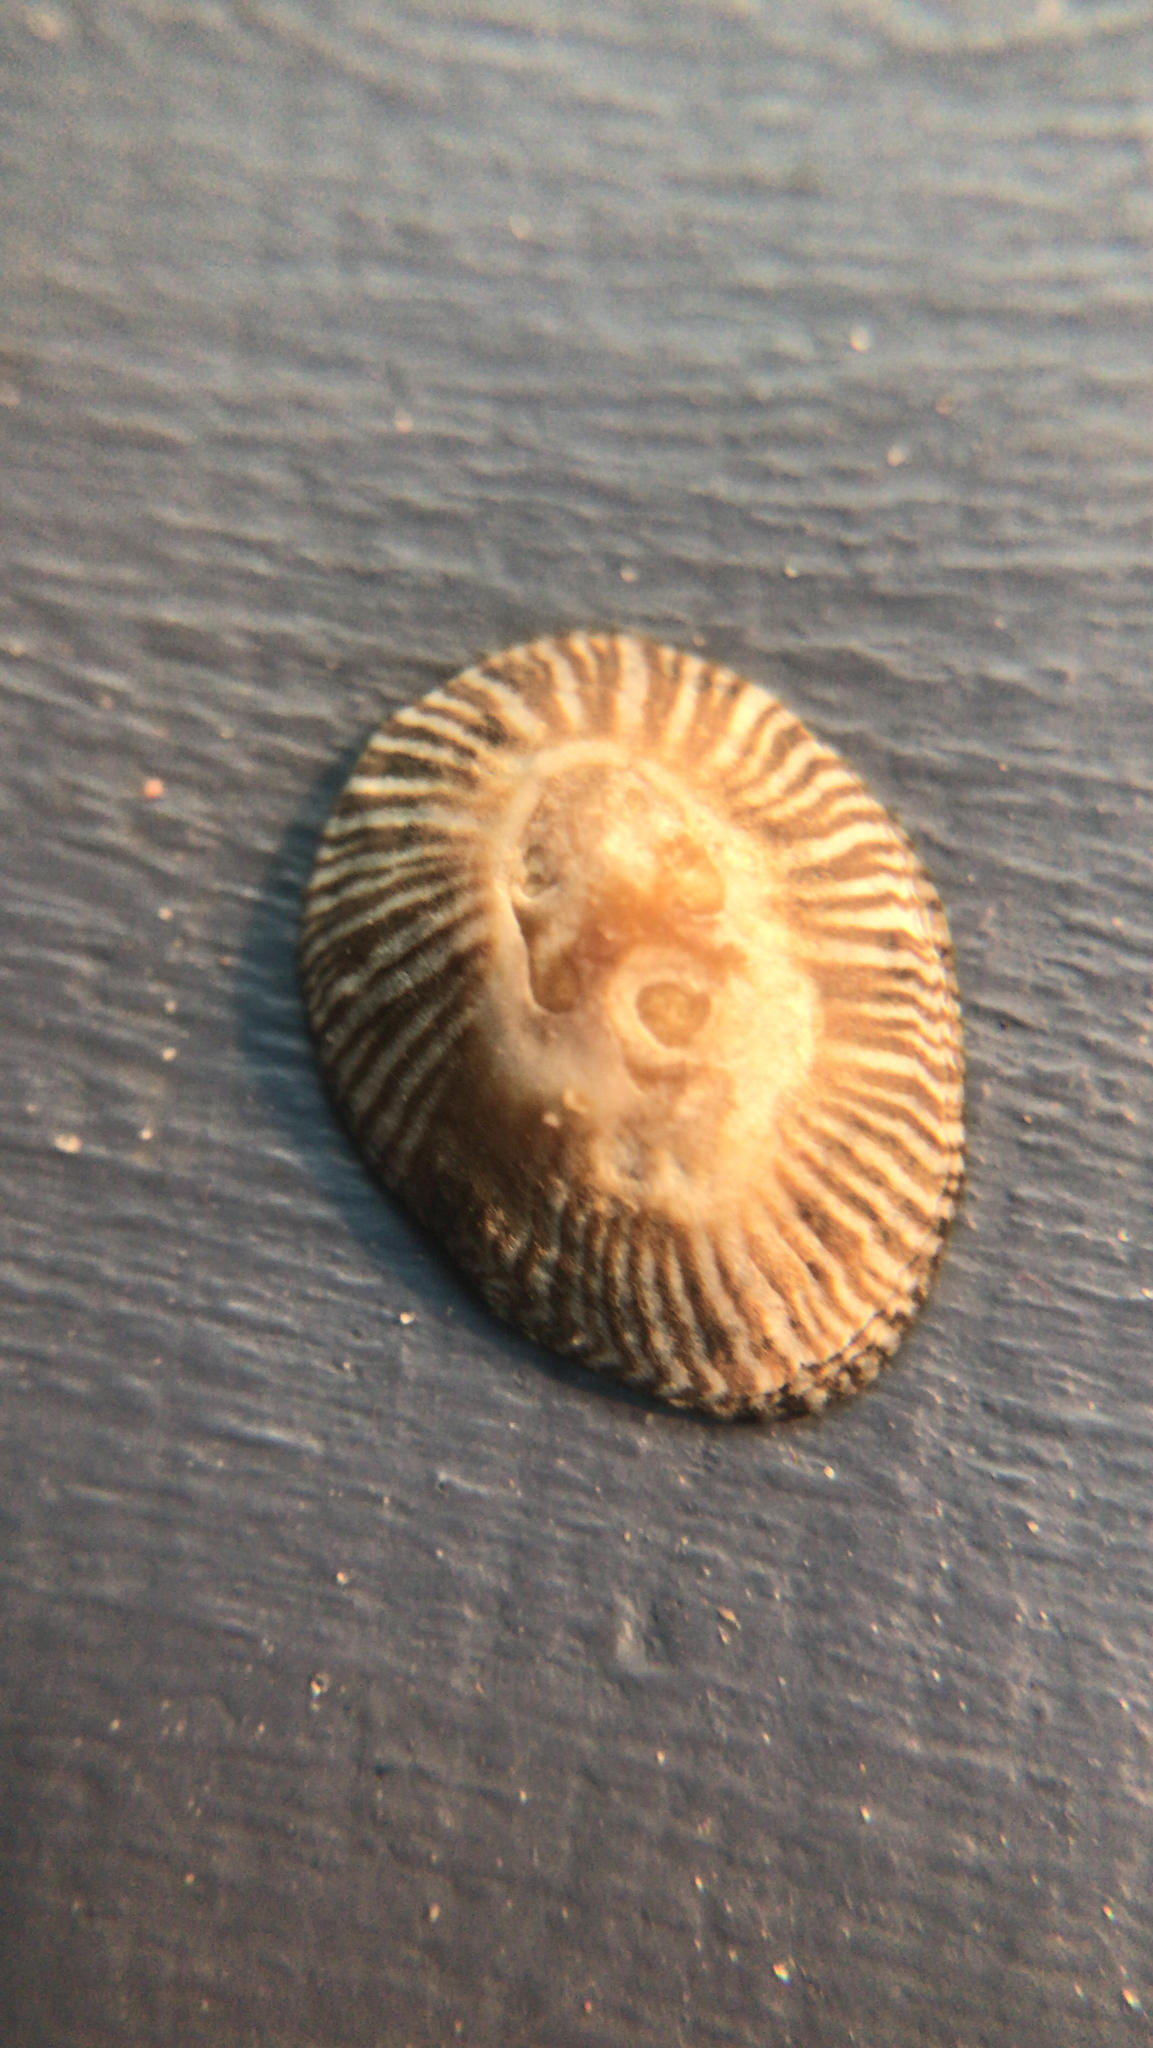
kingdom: Animalia
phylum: Mollusca
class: Gastropoda
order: Siphonariida
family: Siphonariidae
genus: Siphonaria
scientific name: Siphonaria naufragum
